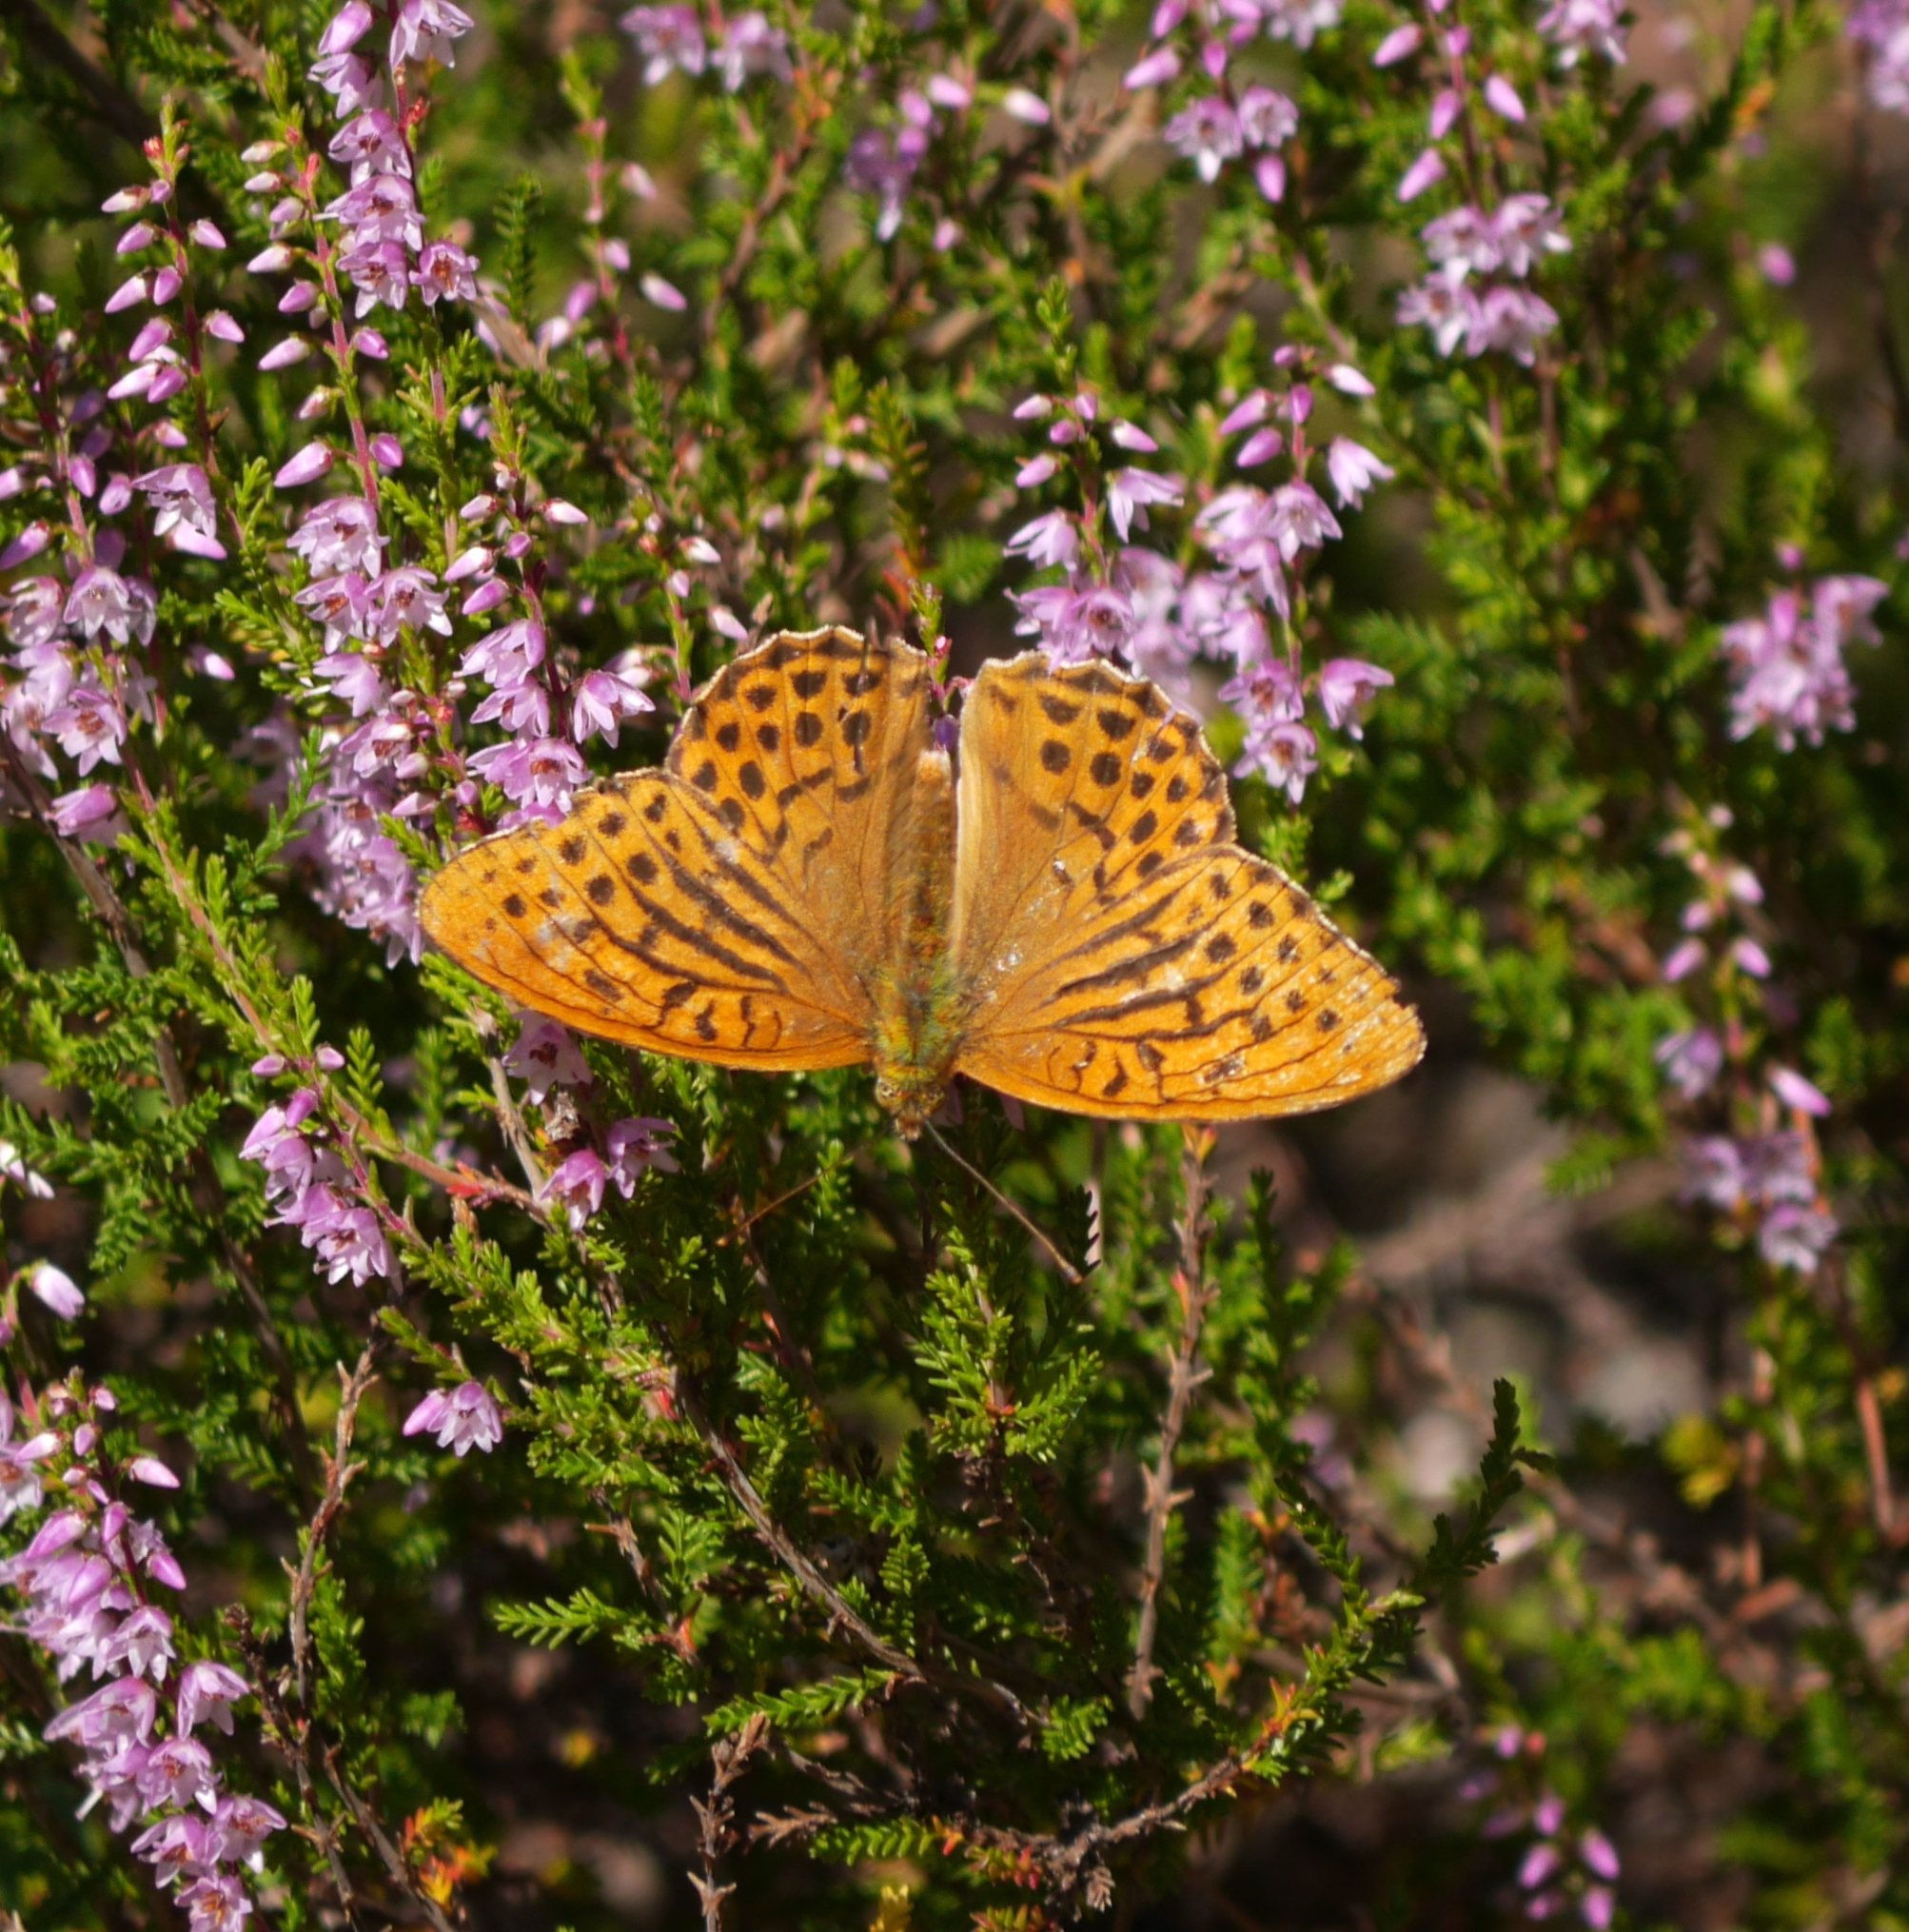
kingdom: Animalia
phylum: Arthropoda
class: Insecta
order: Lepidoptera
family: Nymphalidae
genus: Argynnis
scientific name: Argynnis paphia
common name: Silver-washed fritillary
